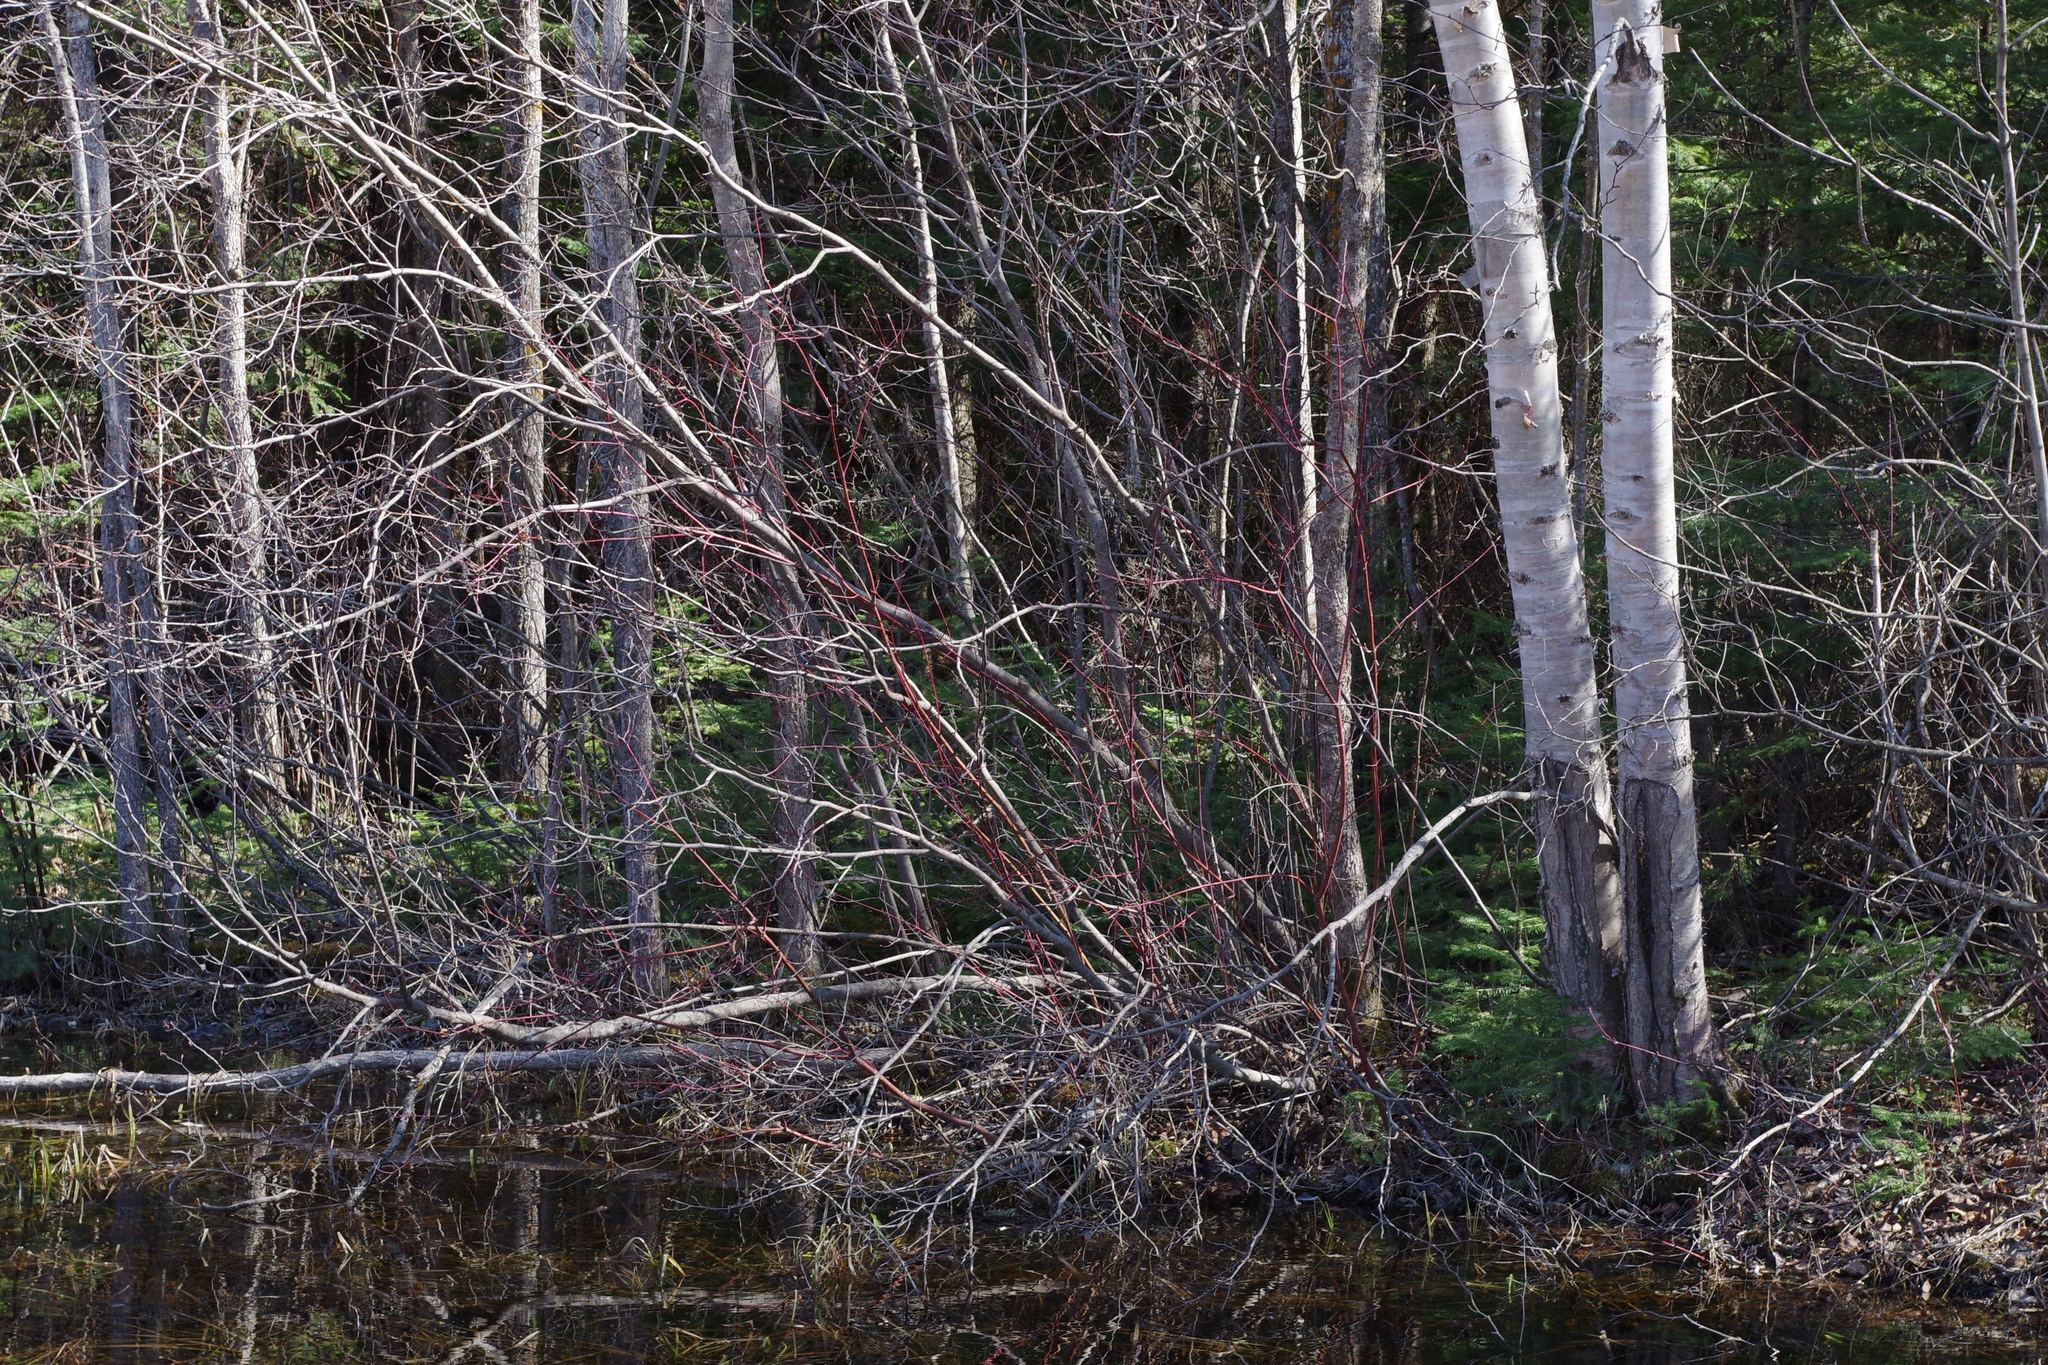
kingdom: Plantae
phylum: Tracheophyta
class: Magnoliopsida
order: Cornales
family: Cornaceae
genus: Cornus
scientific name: Cornus sericea
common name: Red-osier dogwood
